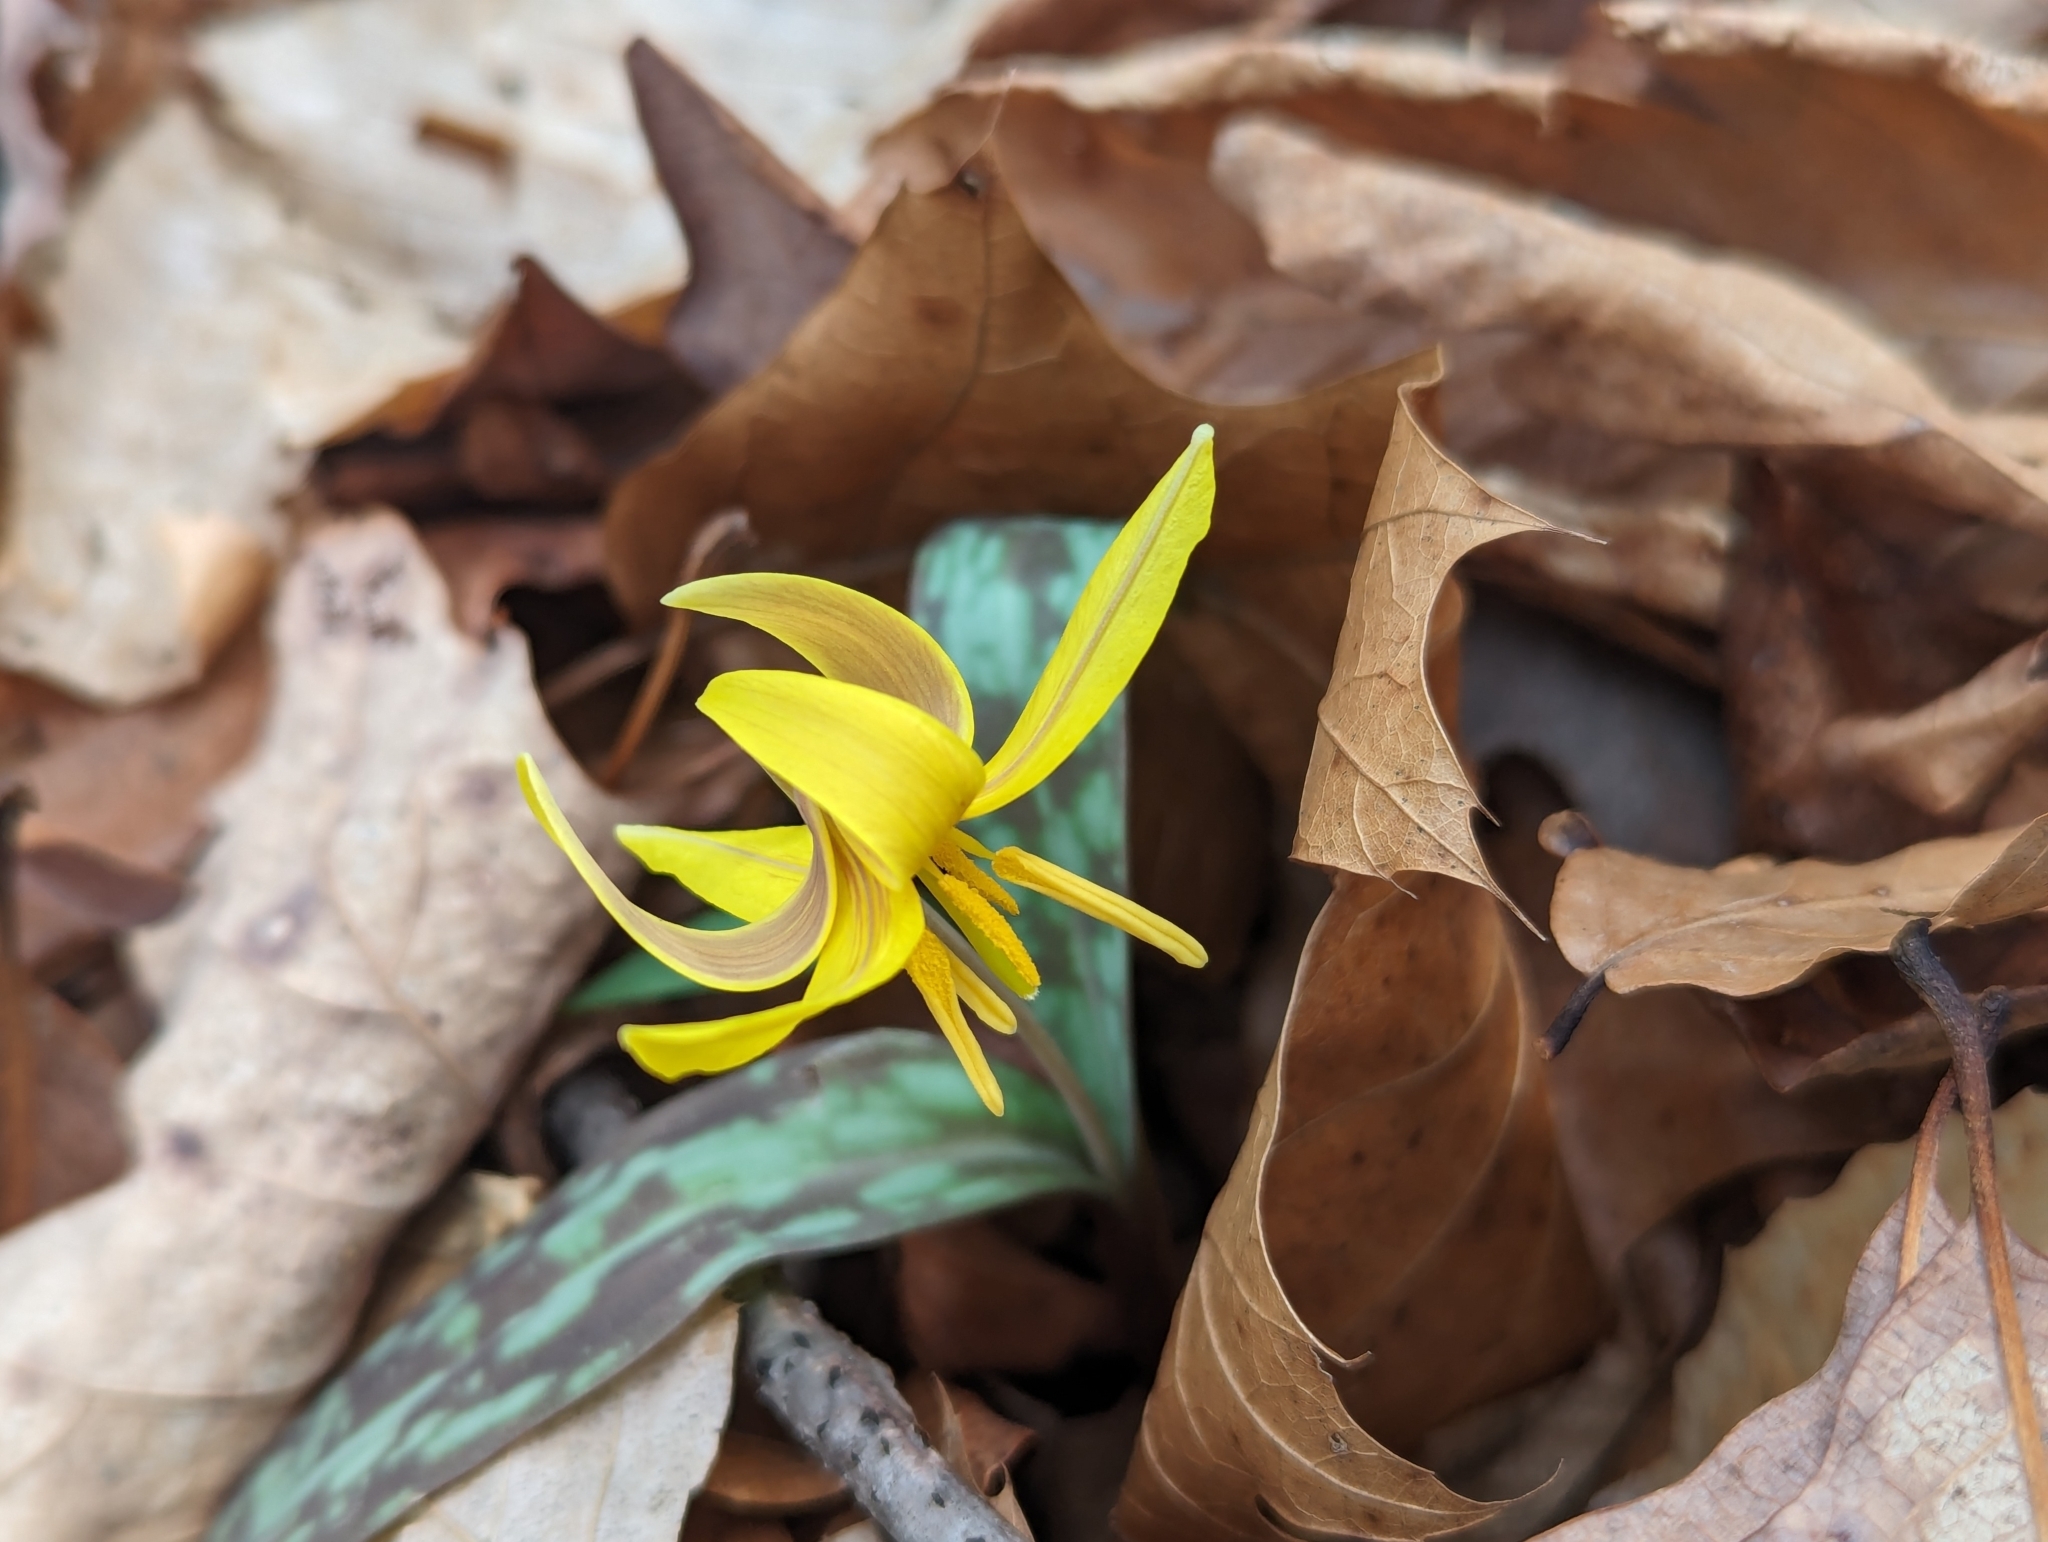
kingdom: Plantae
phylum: Tracheophyta
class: Liliopsida
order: Liliales
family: Liliaceae
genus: Erythronium
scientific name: Erythronium americanum
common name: Yellow adder's-tongue
